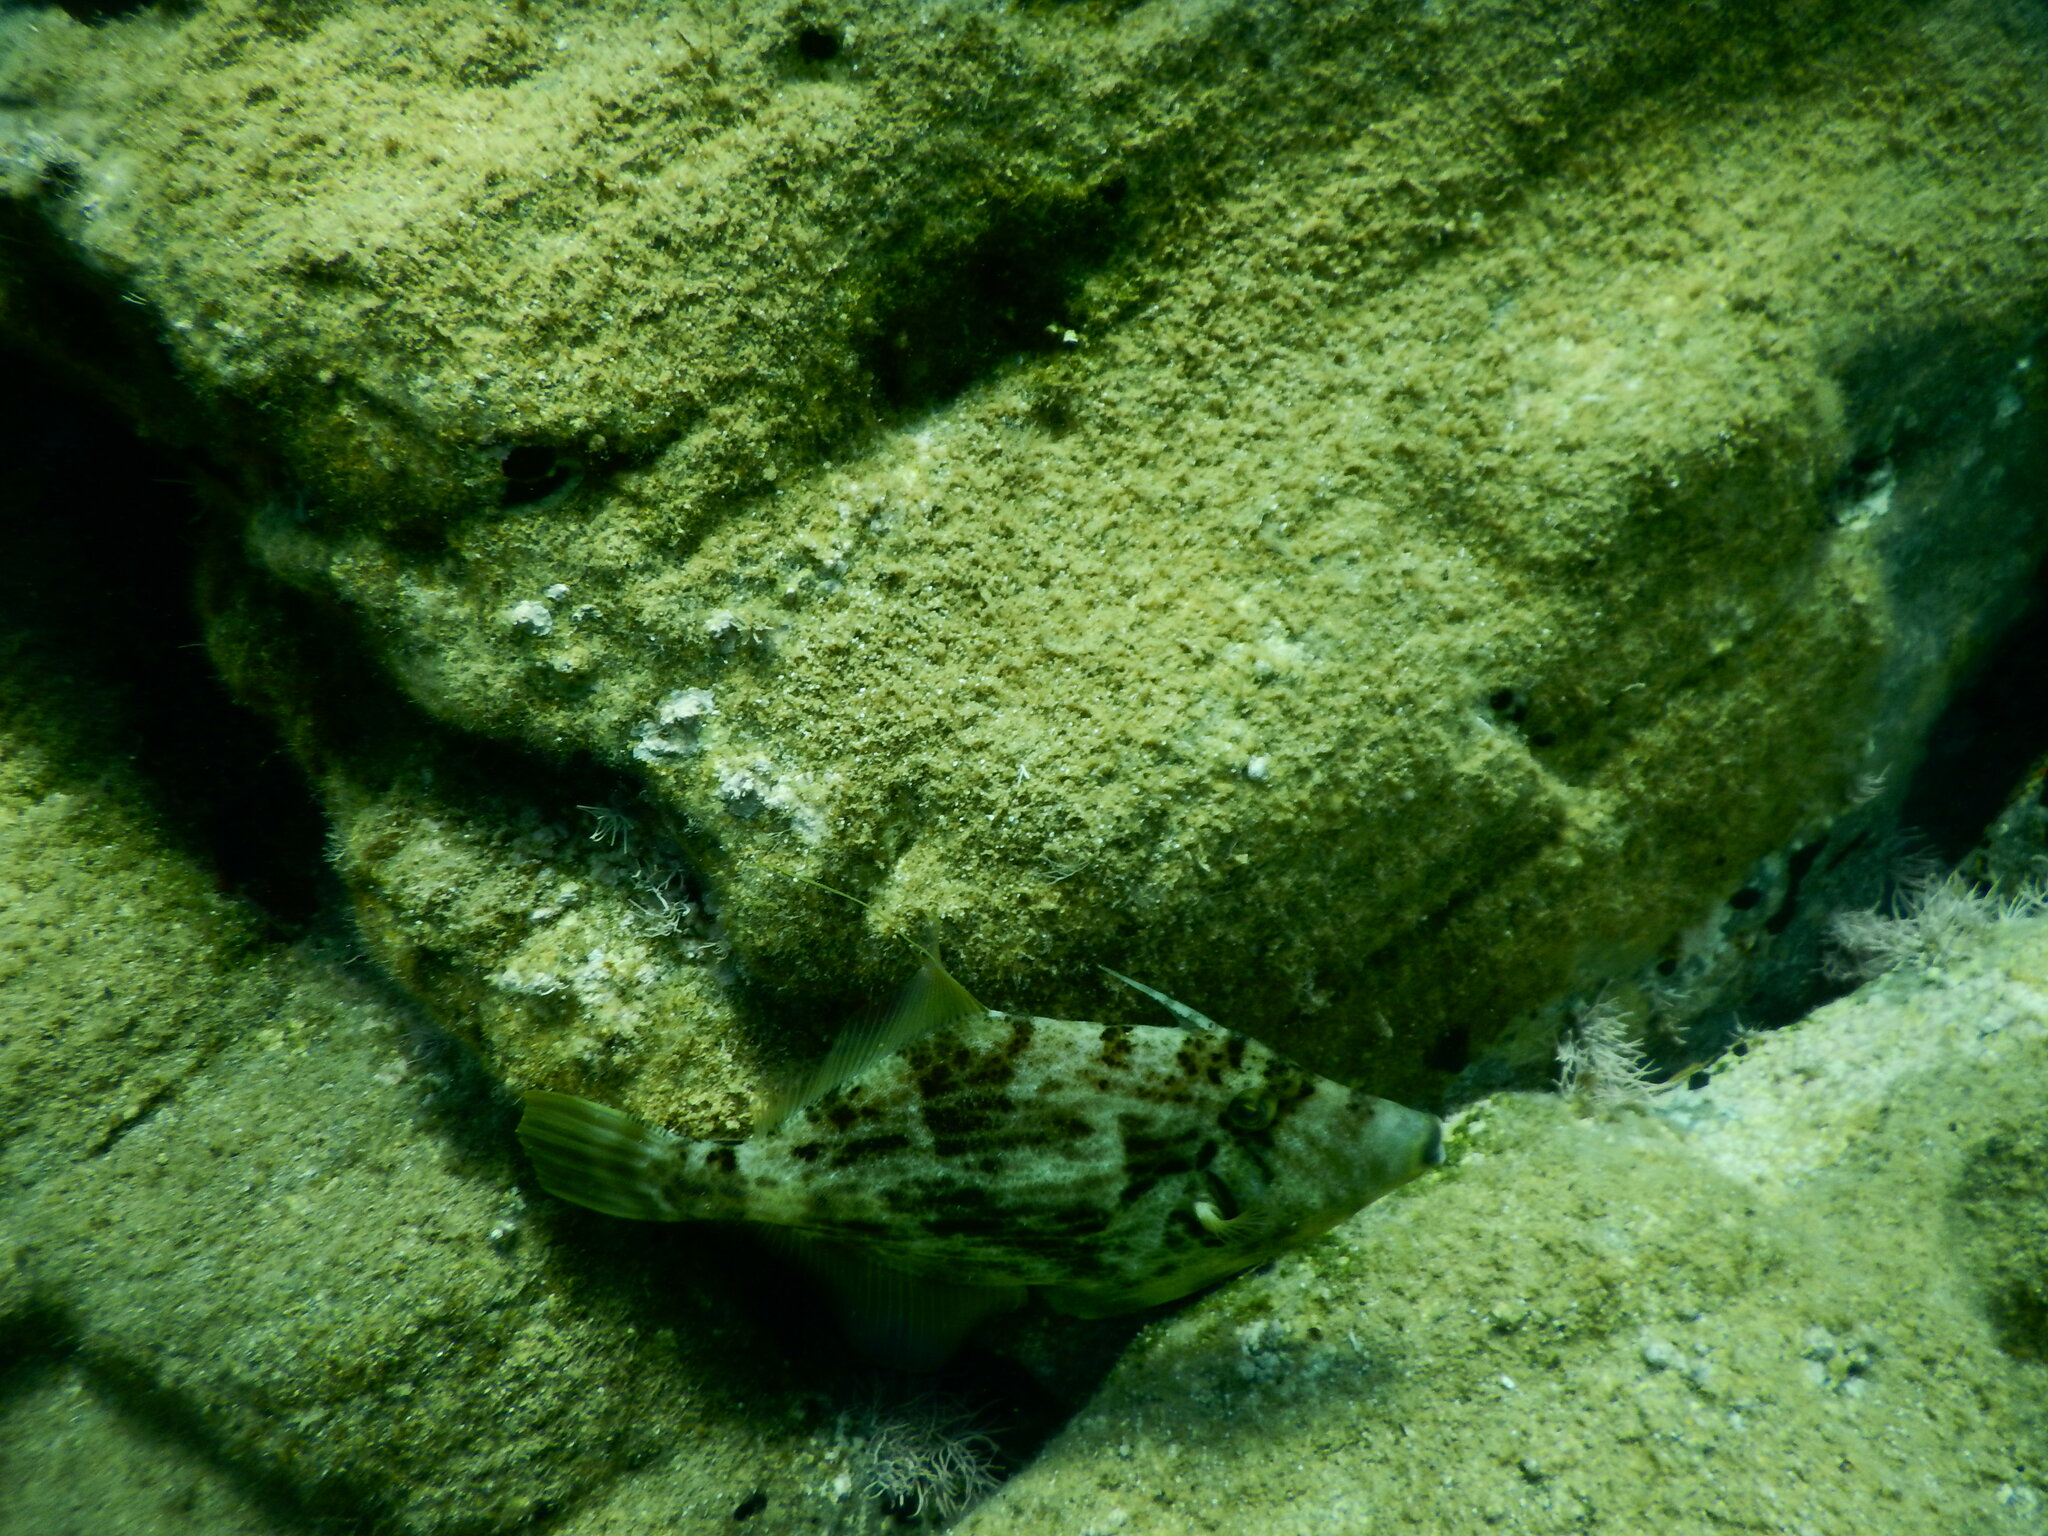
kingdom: Animalia
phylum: Chordata
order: Tetraodontiformes
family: Monacanthidae
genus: Stephanolepis
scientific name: Stephanolepis diaspros
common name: Reticulated leatherjacket
